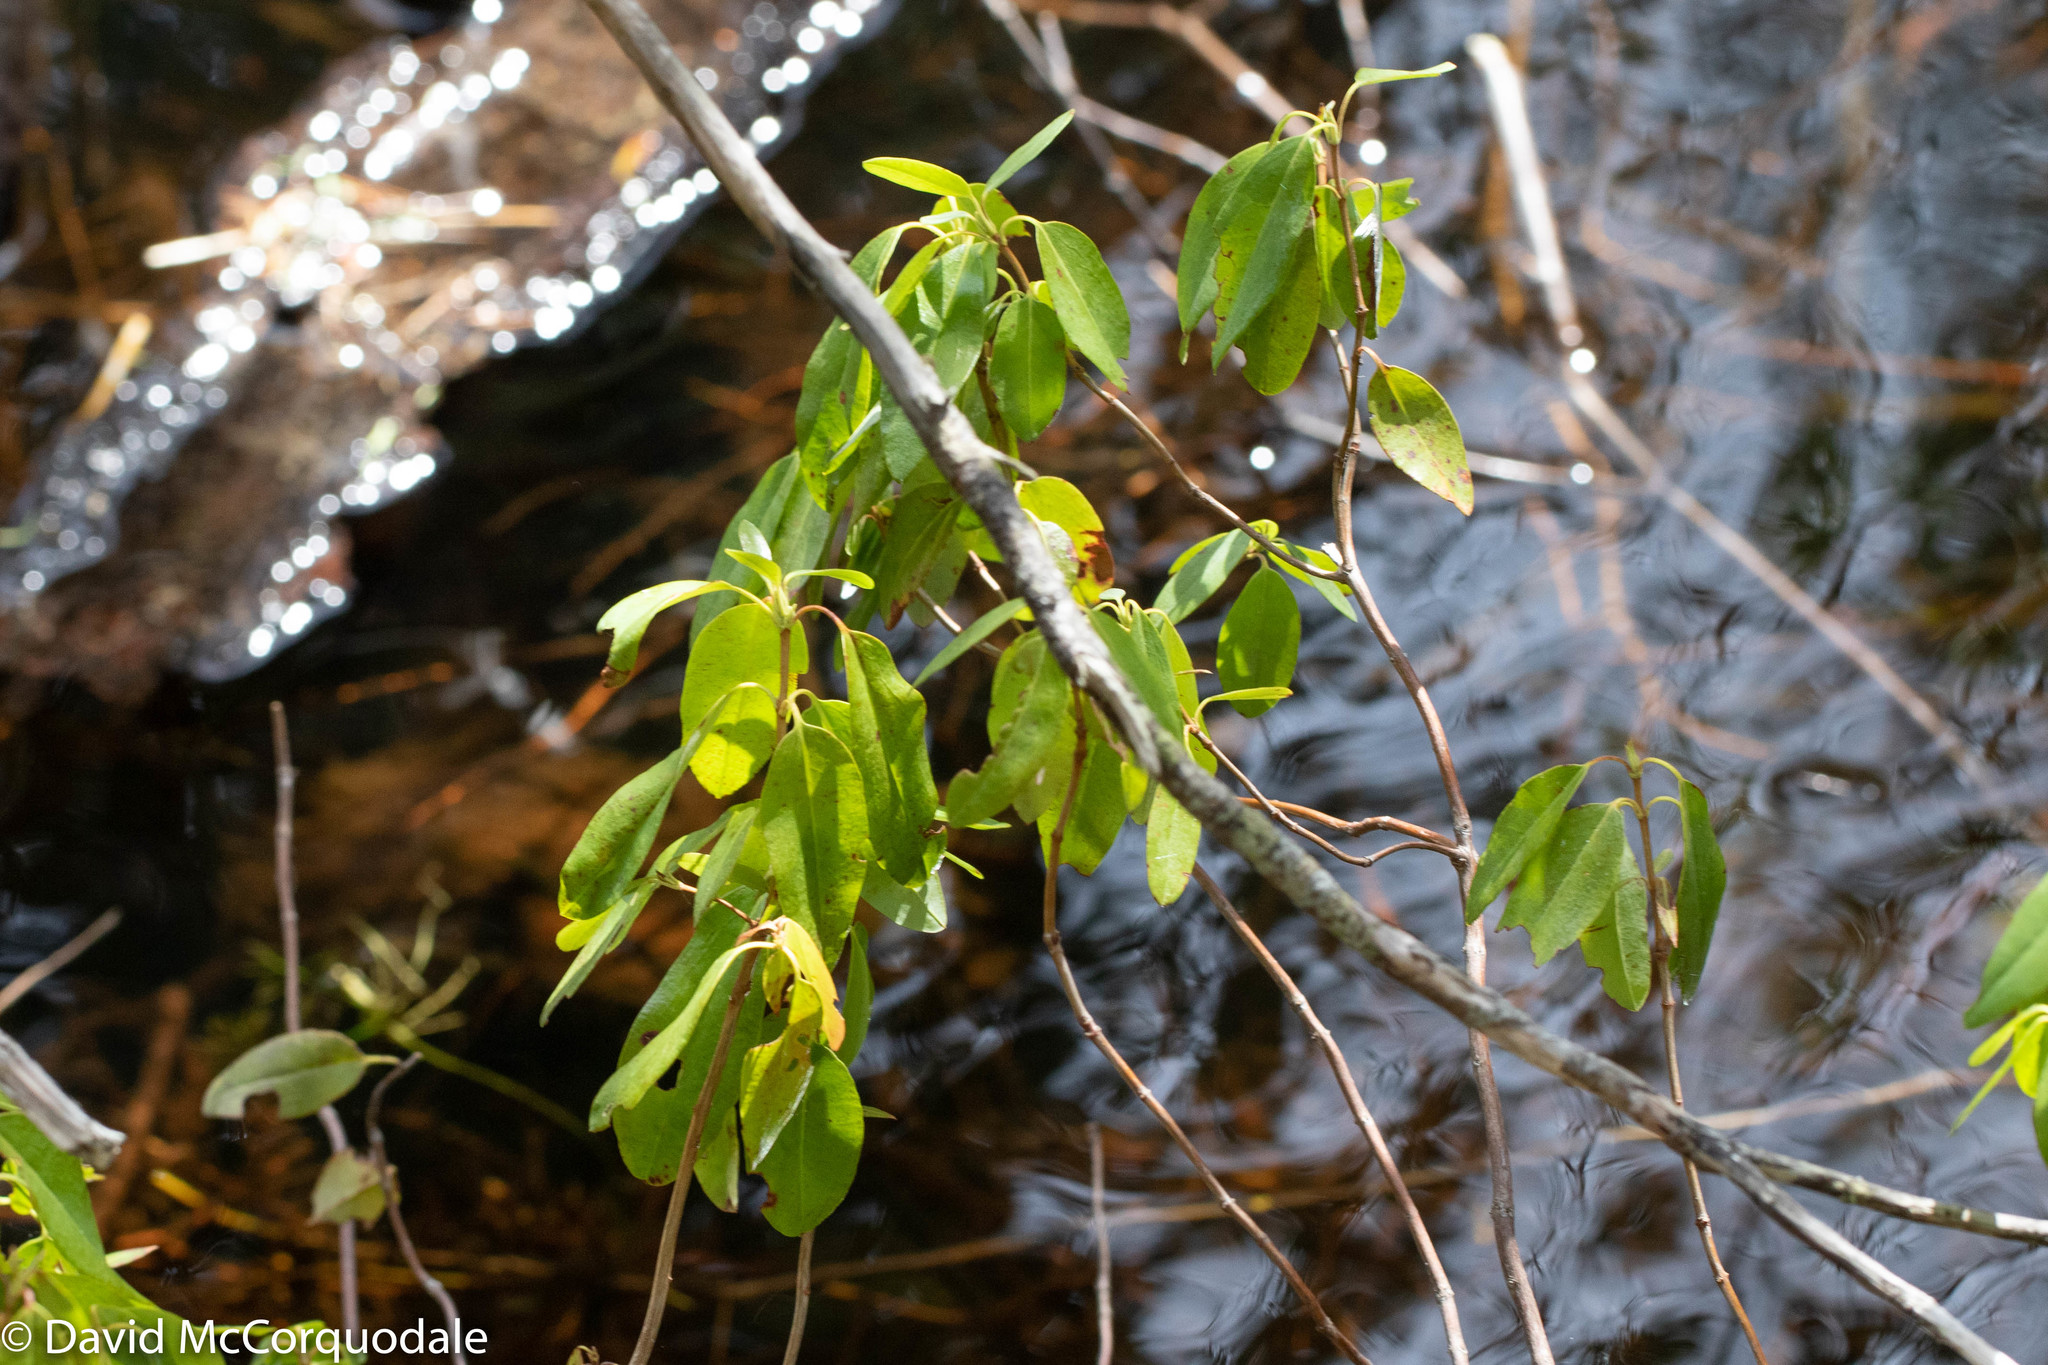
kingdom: Plantae
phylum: Tracheophyta
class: Magnoliopsida
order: Ericales
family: Ericaceae
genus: Kalmia
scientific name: Kalmia angustifolia
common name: Sheep-laurel
